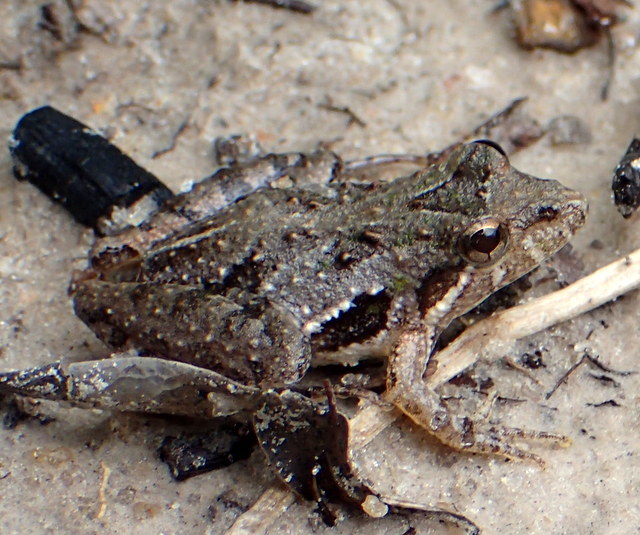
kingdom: Animalia
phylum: Chordata
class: Amphibia
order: Anura
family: Hylidae
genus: Acris
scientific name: Acris gryllus
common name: Southern cricket frog
